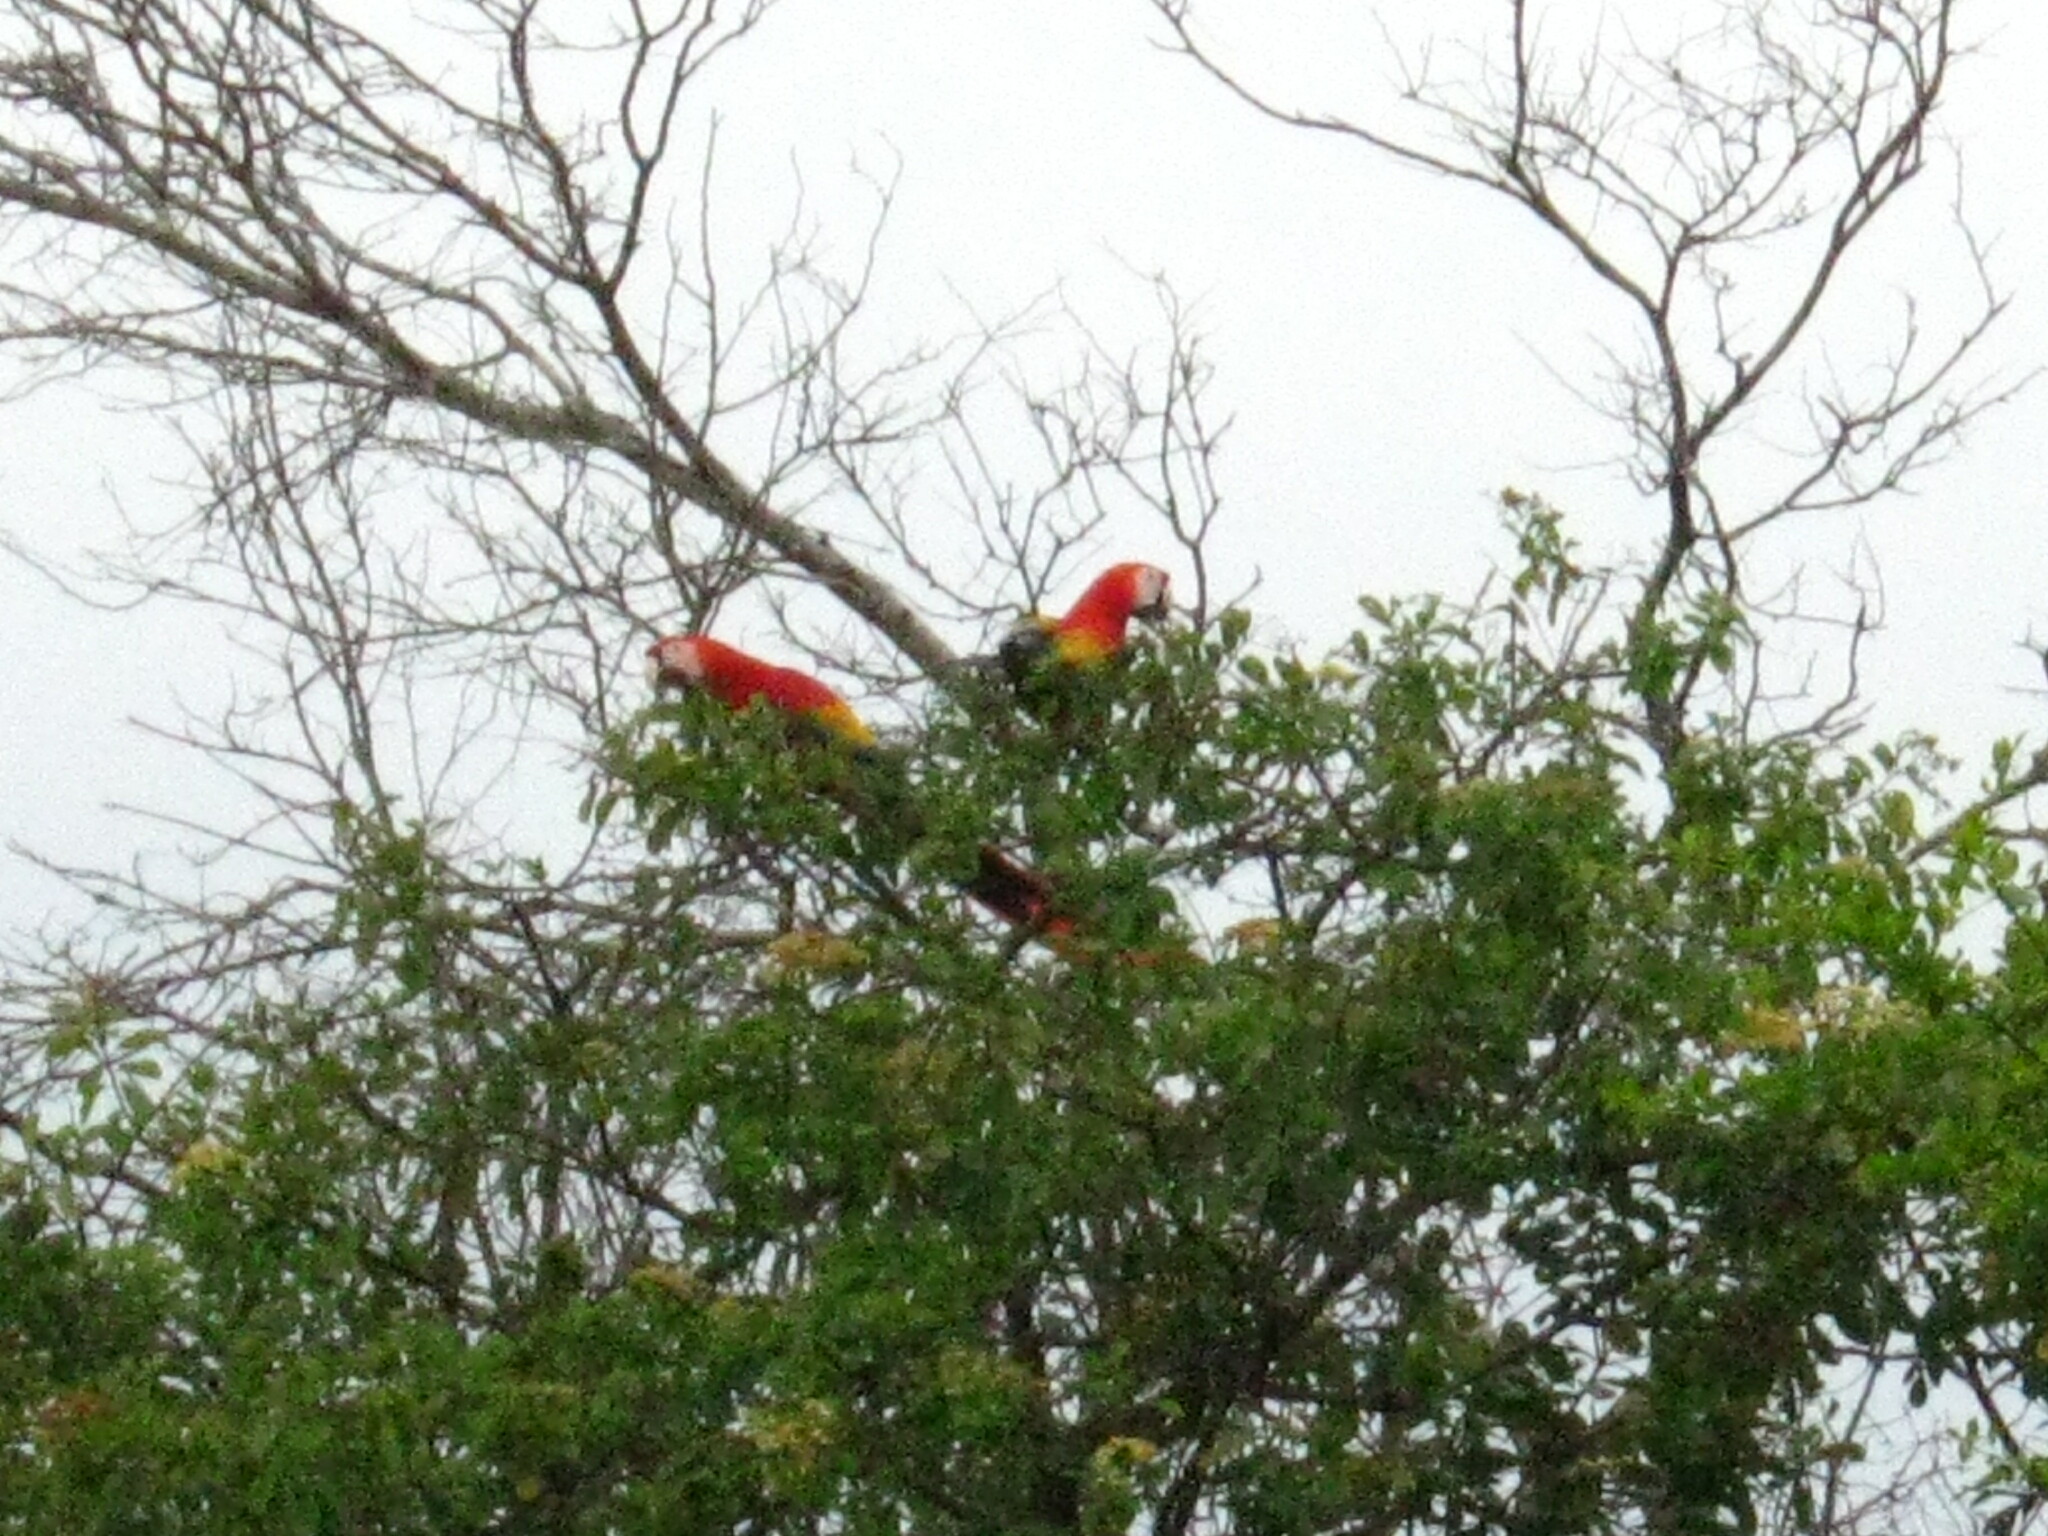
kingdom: Animalia
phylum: Chordata
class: Aves
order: Psittaciformes
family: Psittacidae
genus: Ara
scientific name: Ara macao
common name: Scarlet macaw
